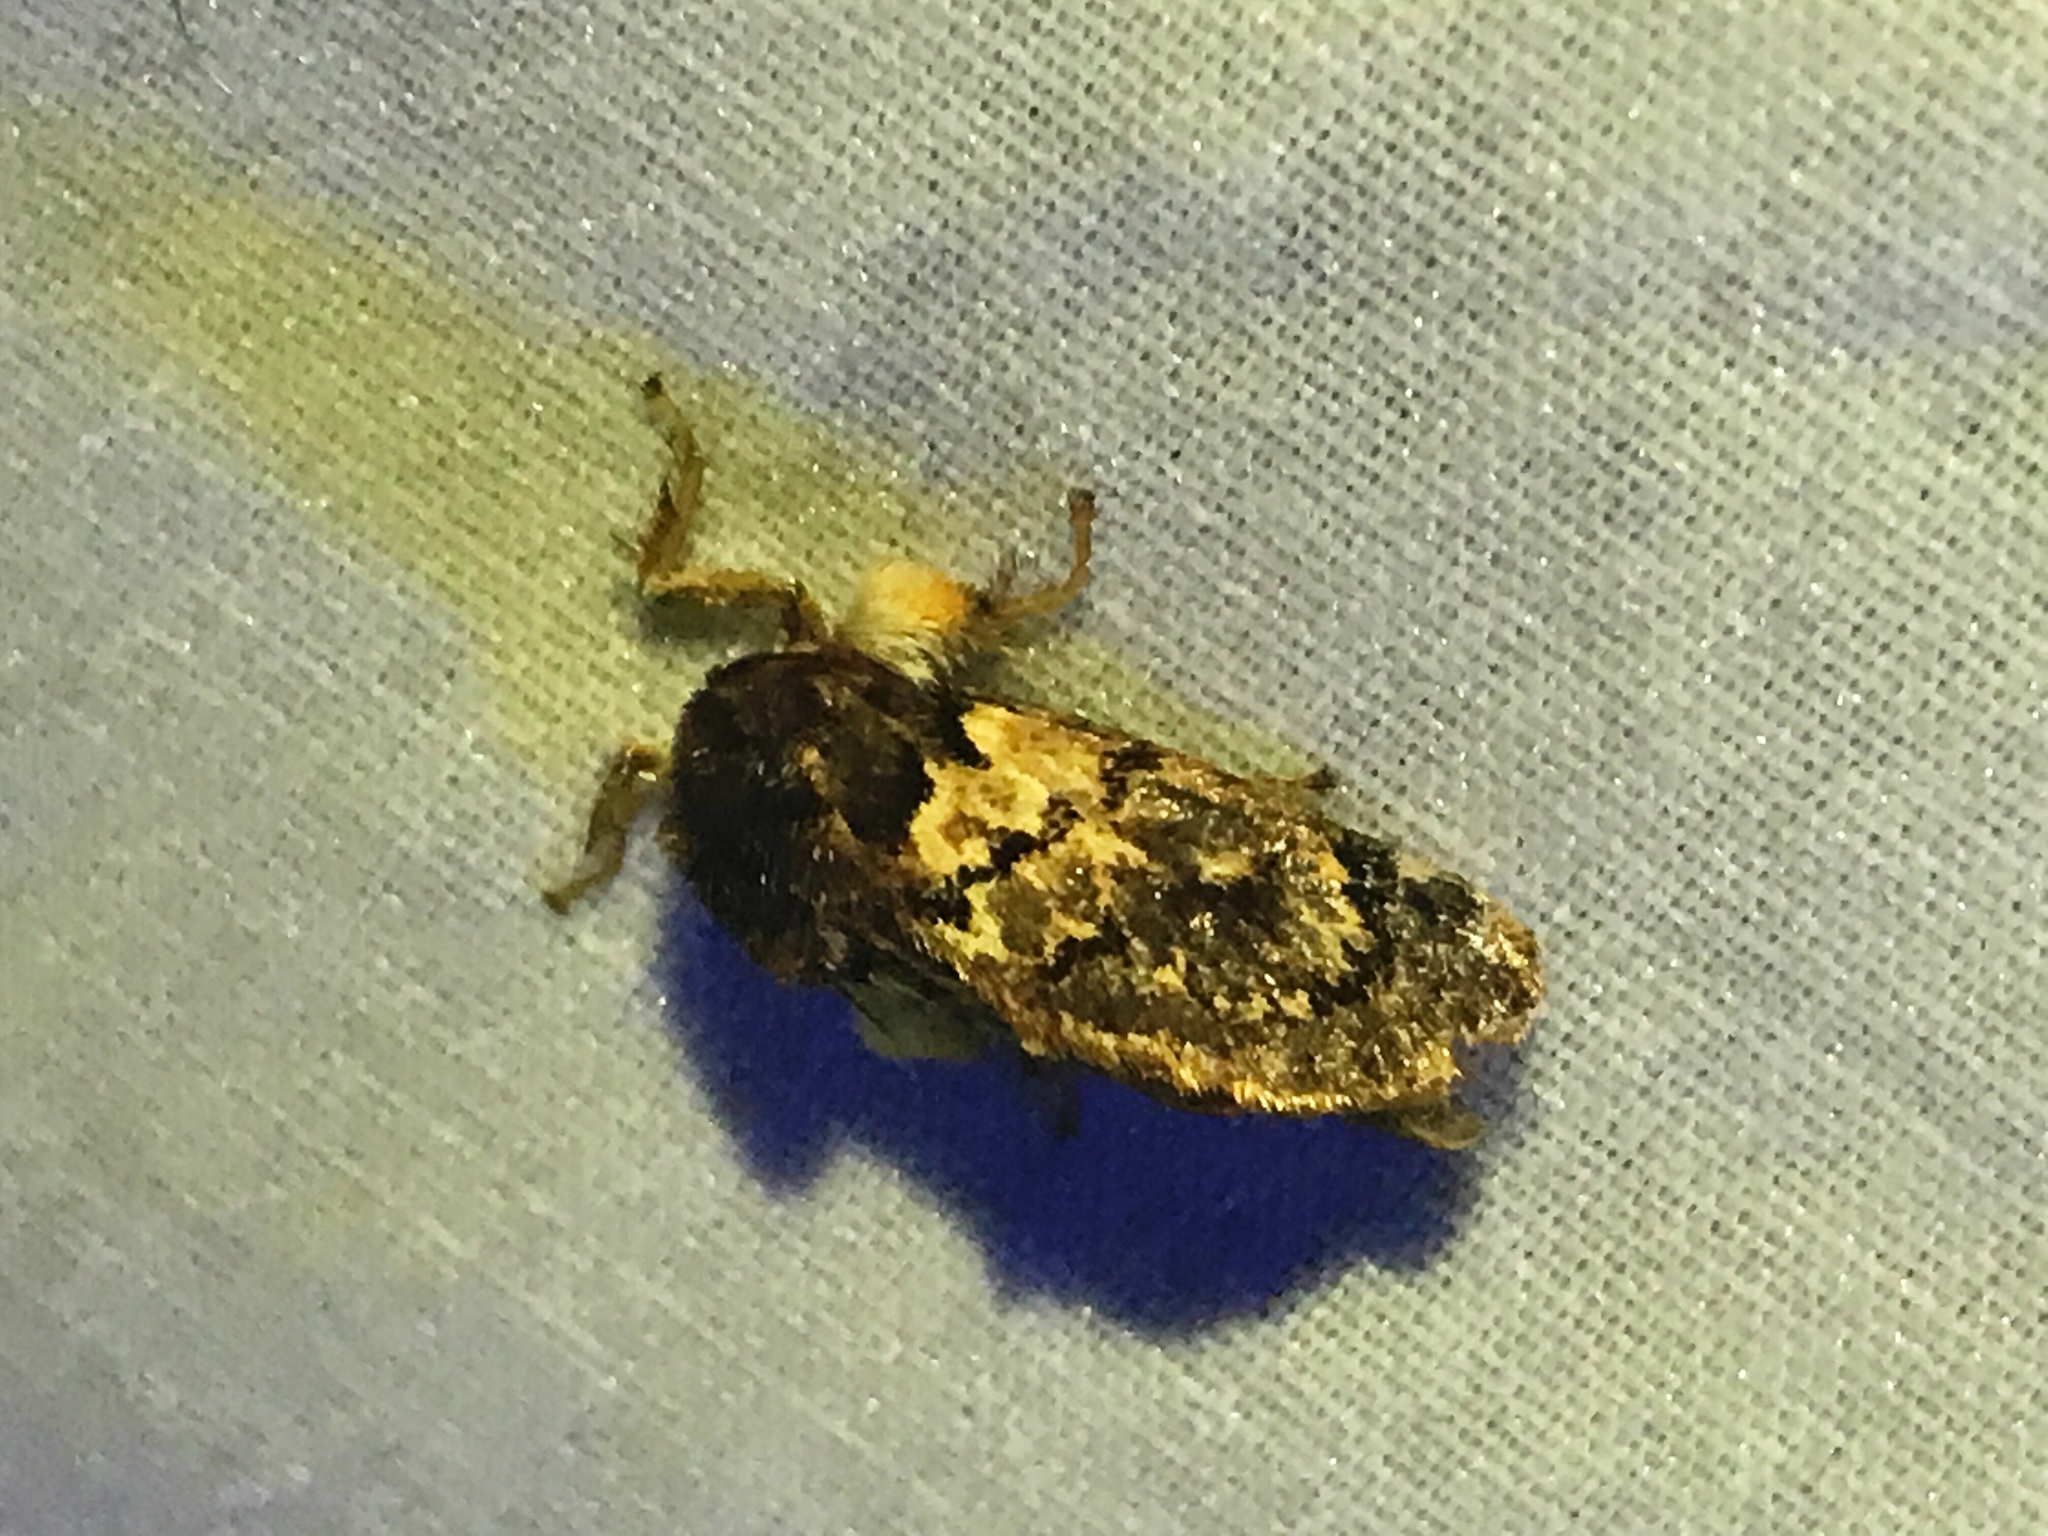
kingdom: Animalia
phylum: Arthropoda
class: Insecta
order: Lepidoptera
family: Limacodidae
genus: Phobetron
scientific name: Phobetron pithecium
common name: Hag moth
